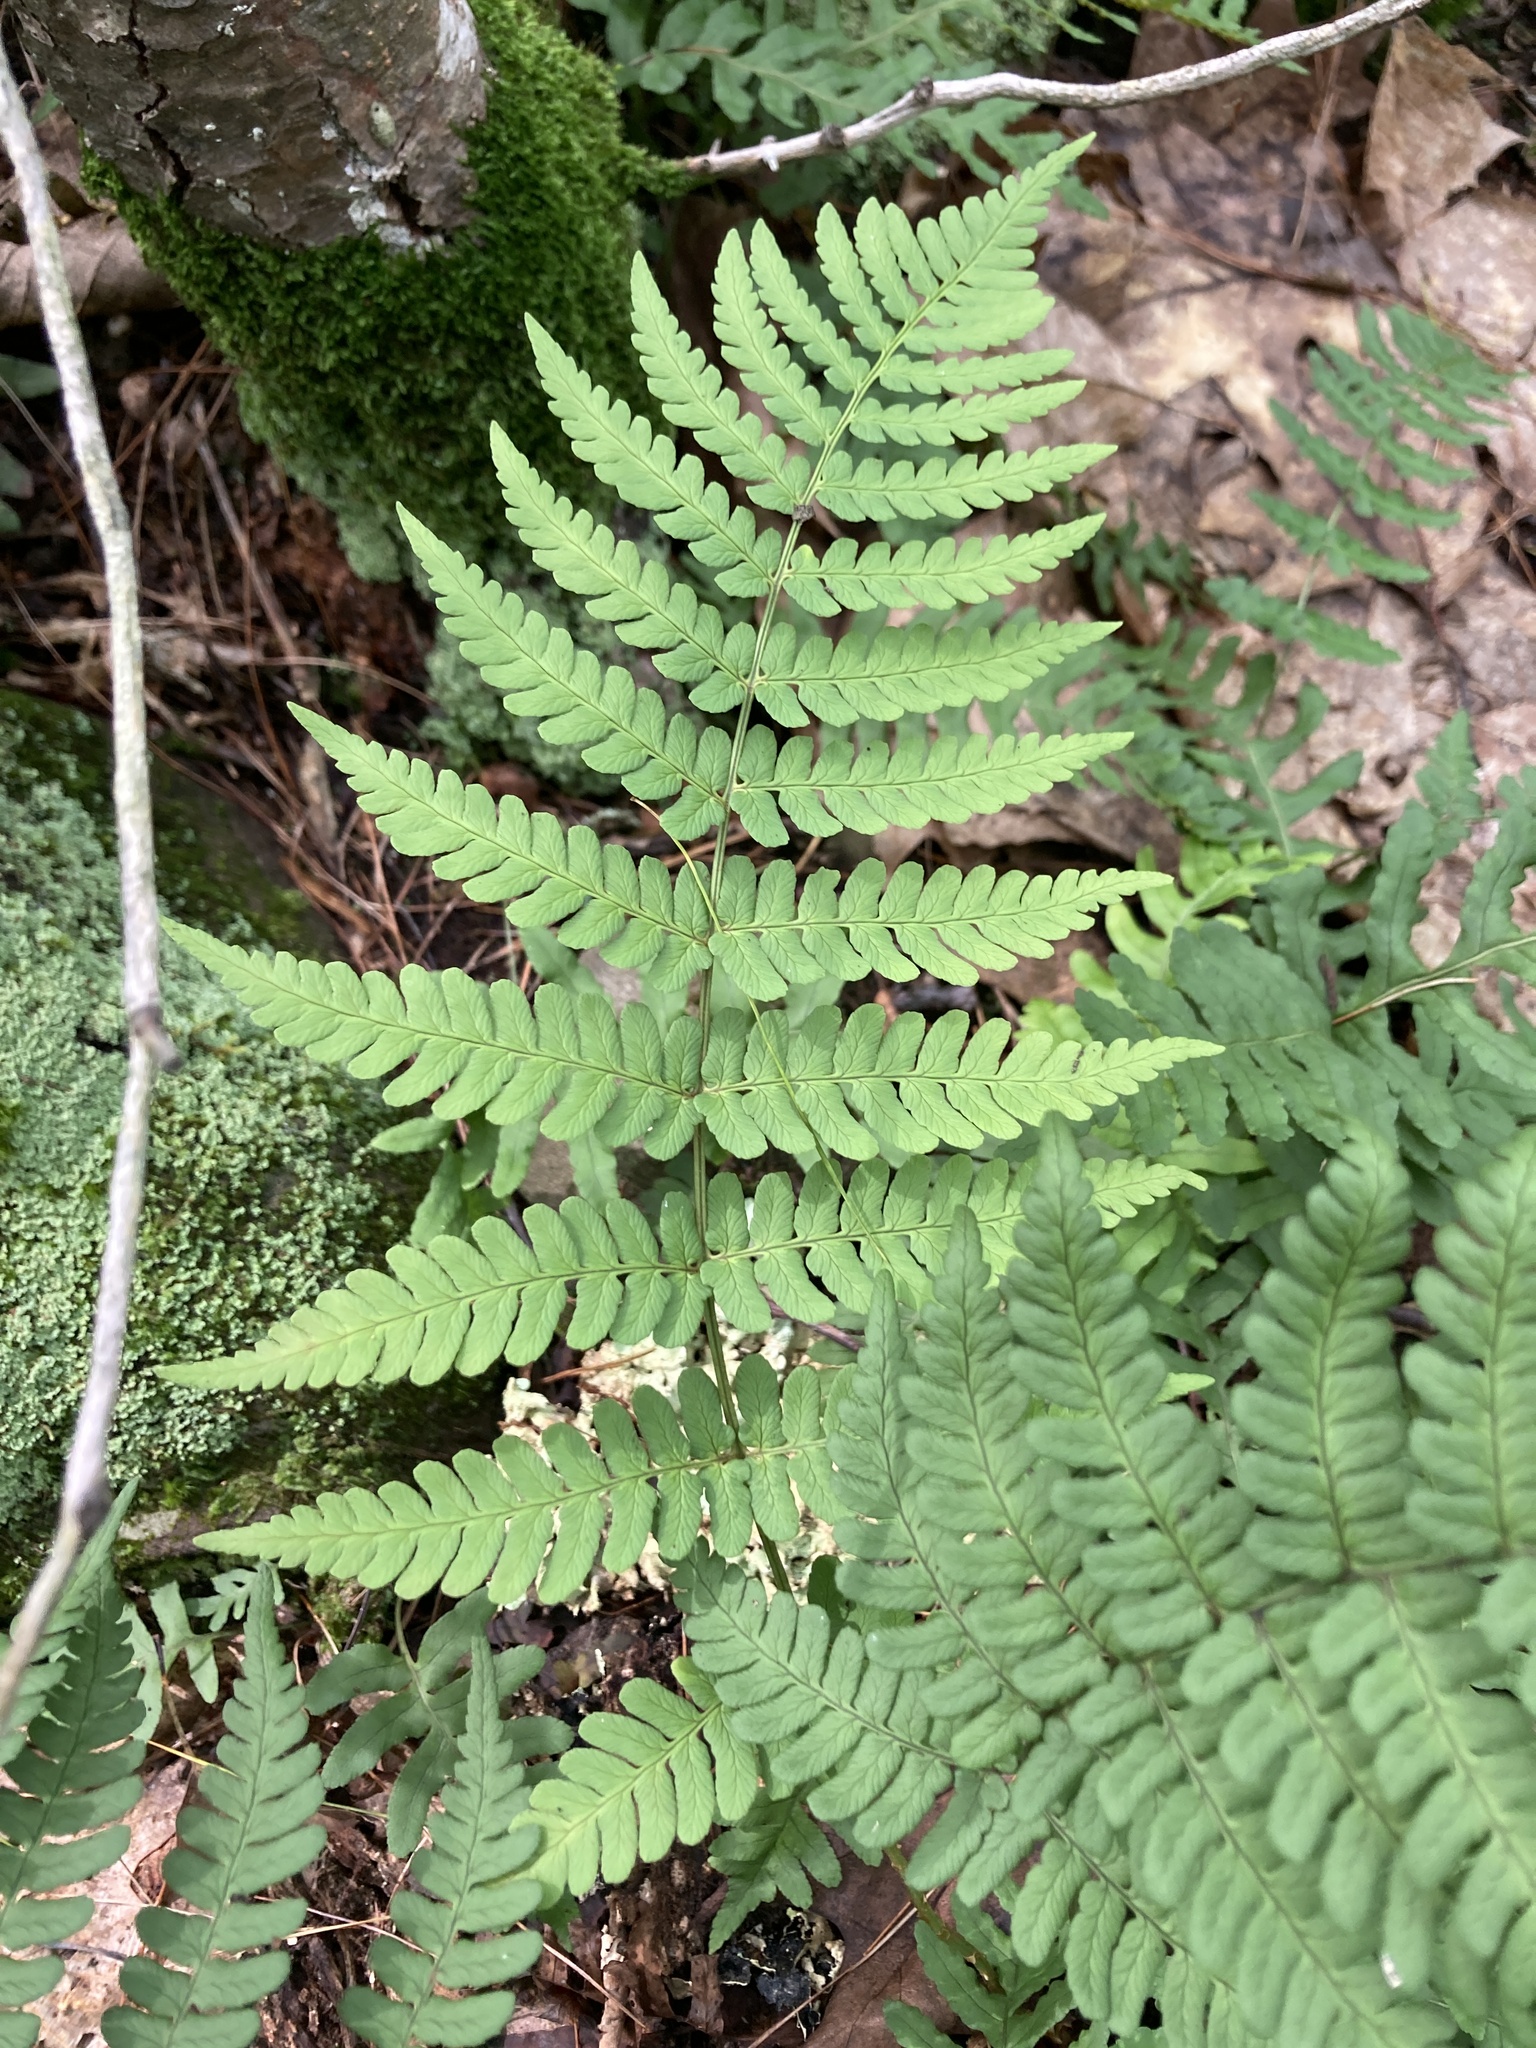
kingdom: Plantae
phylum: Tracheophyta
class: Polypodiopsida
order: Polypodiales
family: Dryopteridaceae
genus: Dryopteris
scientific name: Dryopteris marginalis
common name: Marginal wood fern
